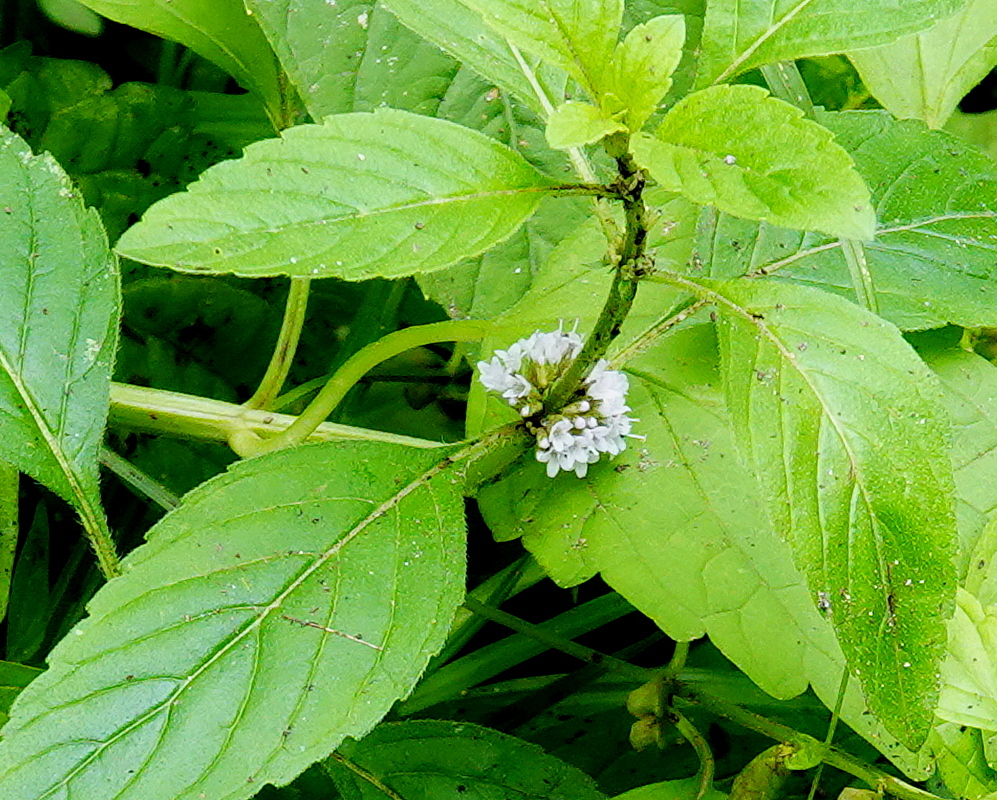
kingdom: Plantae
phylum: Tracheophyta
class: Magnoliopsida
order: Lamiales
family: Lamiaceae
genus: Mentha
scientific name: Mentha canadensis
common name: American corn mint
